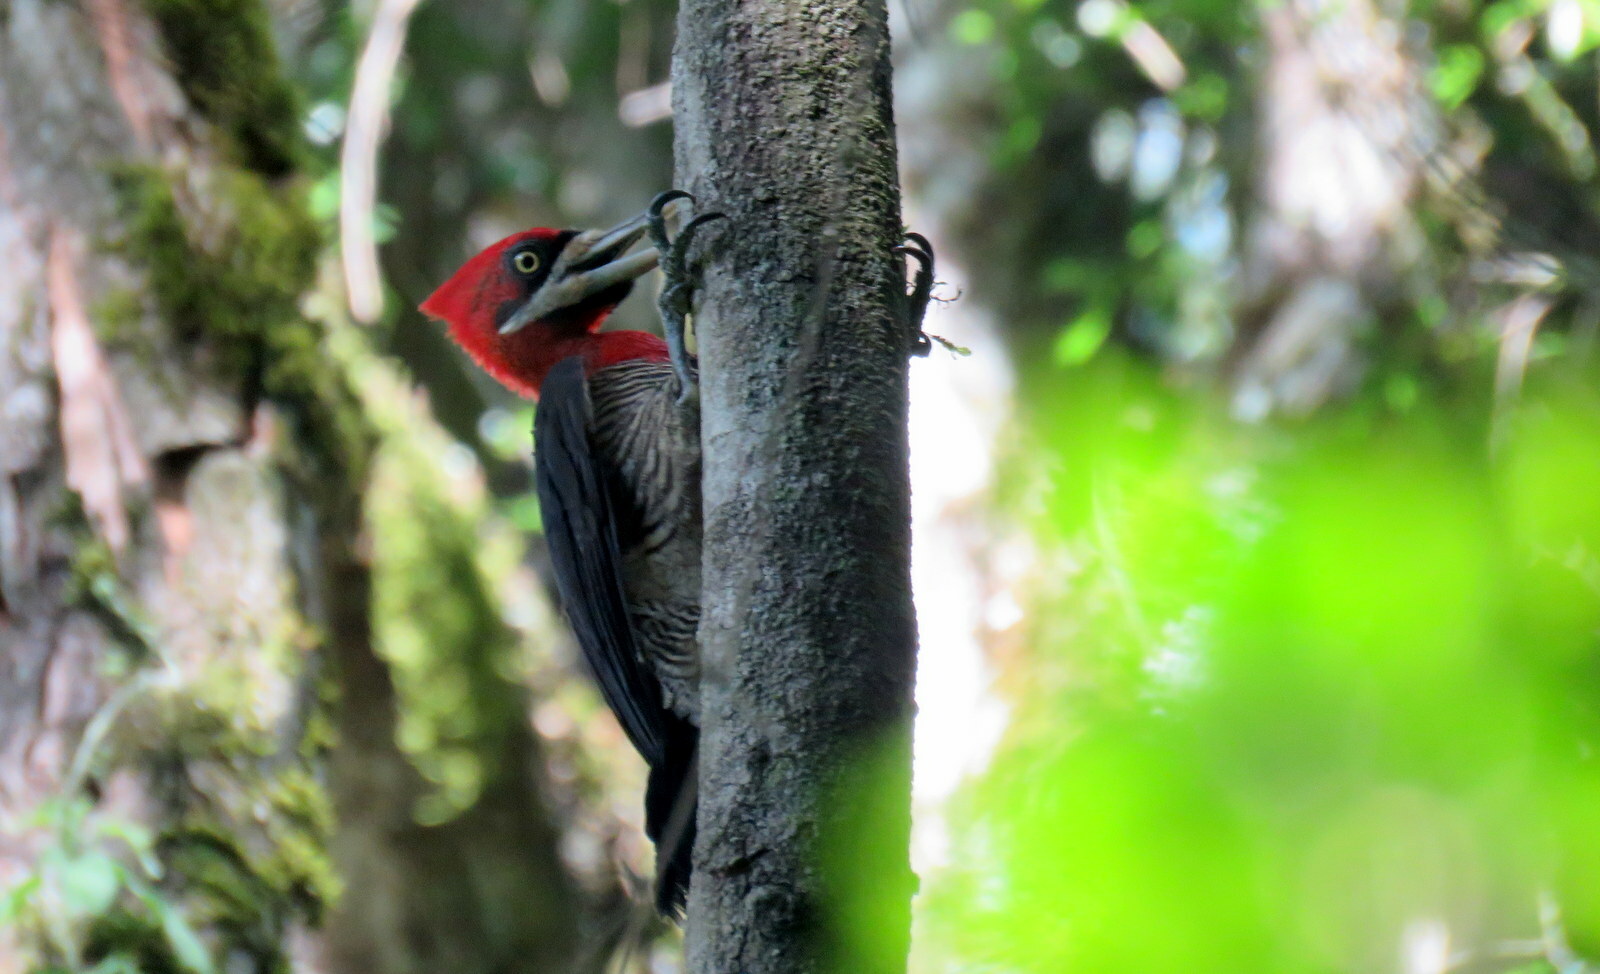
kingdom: Animalia
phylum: Chordata
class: Aves
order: Piciformes
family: Picidae
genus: Campephilus
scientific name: Campephilus robustus
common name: Robust woodpecker
